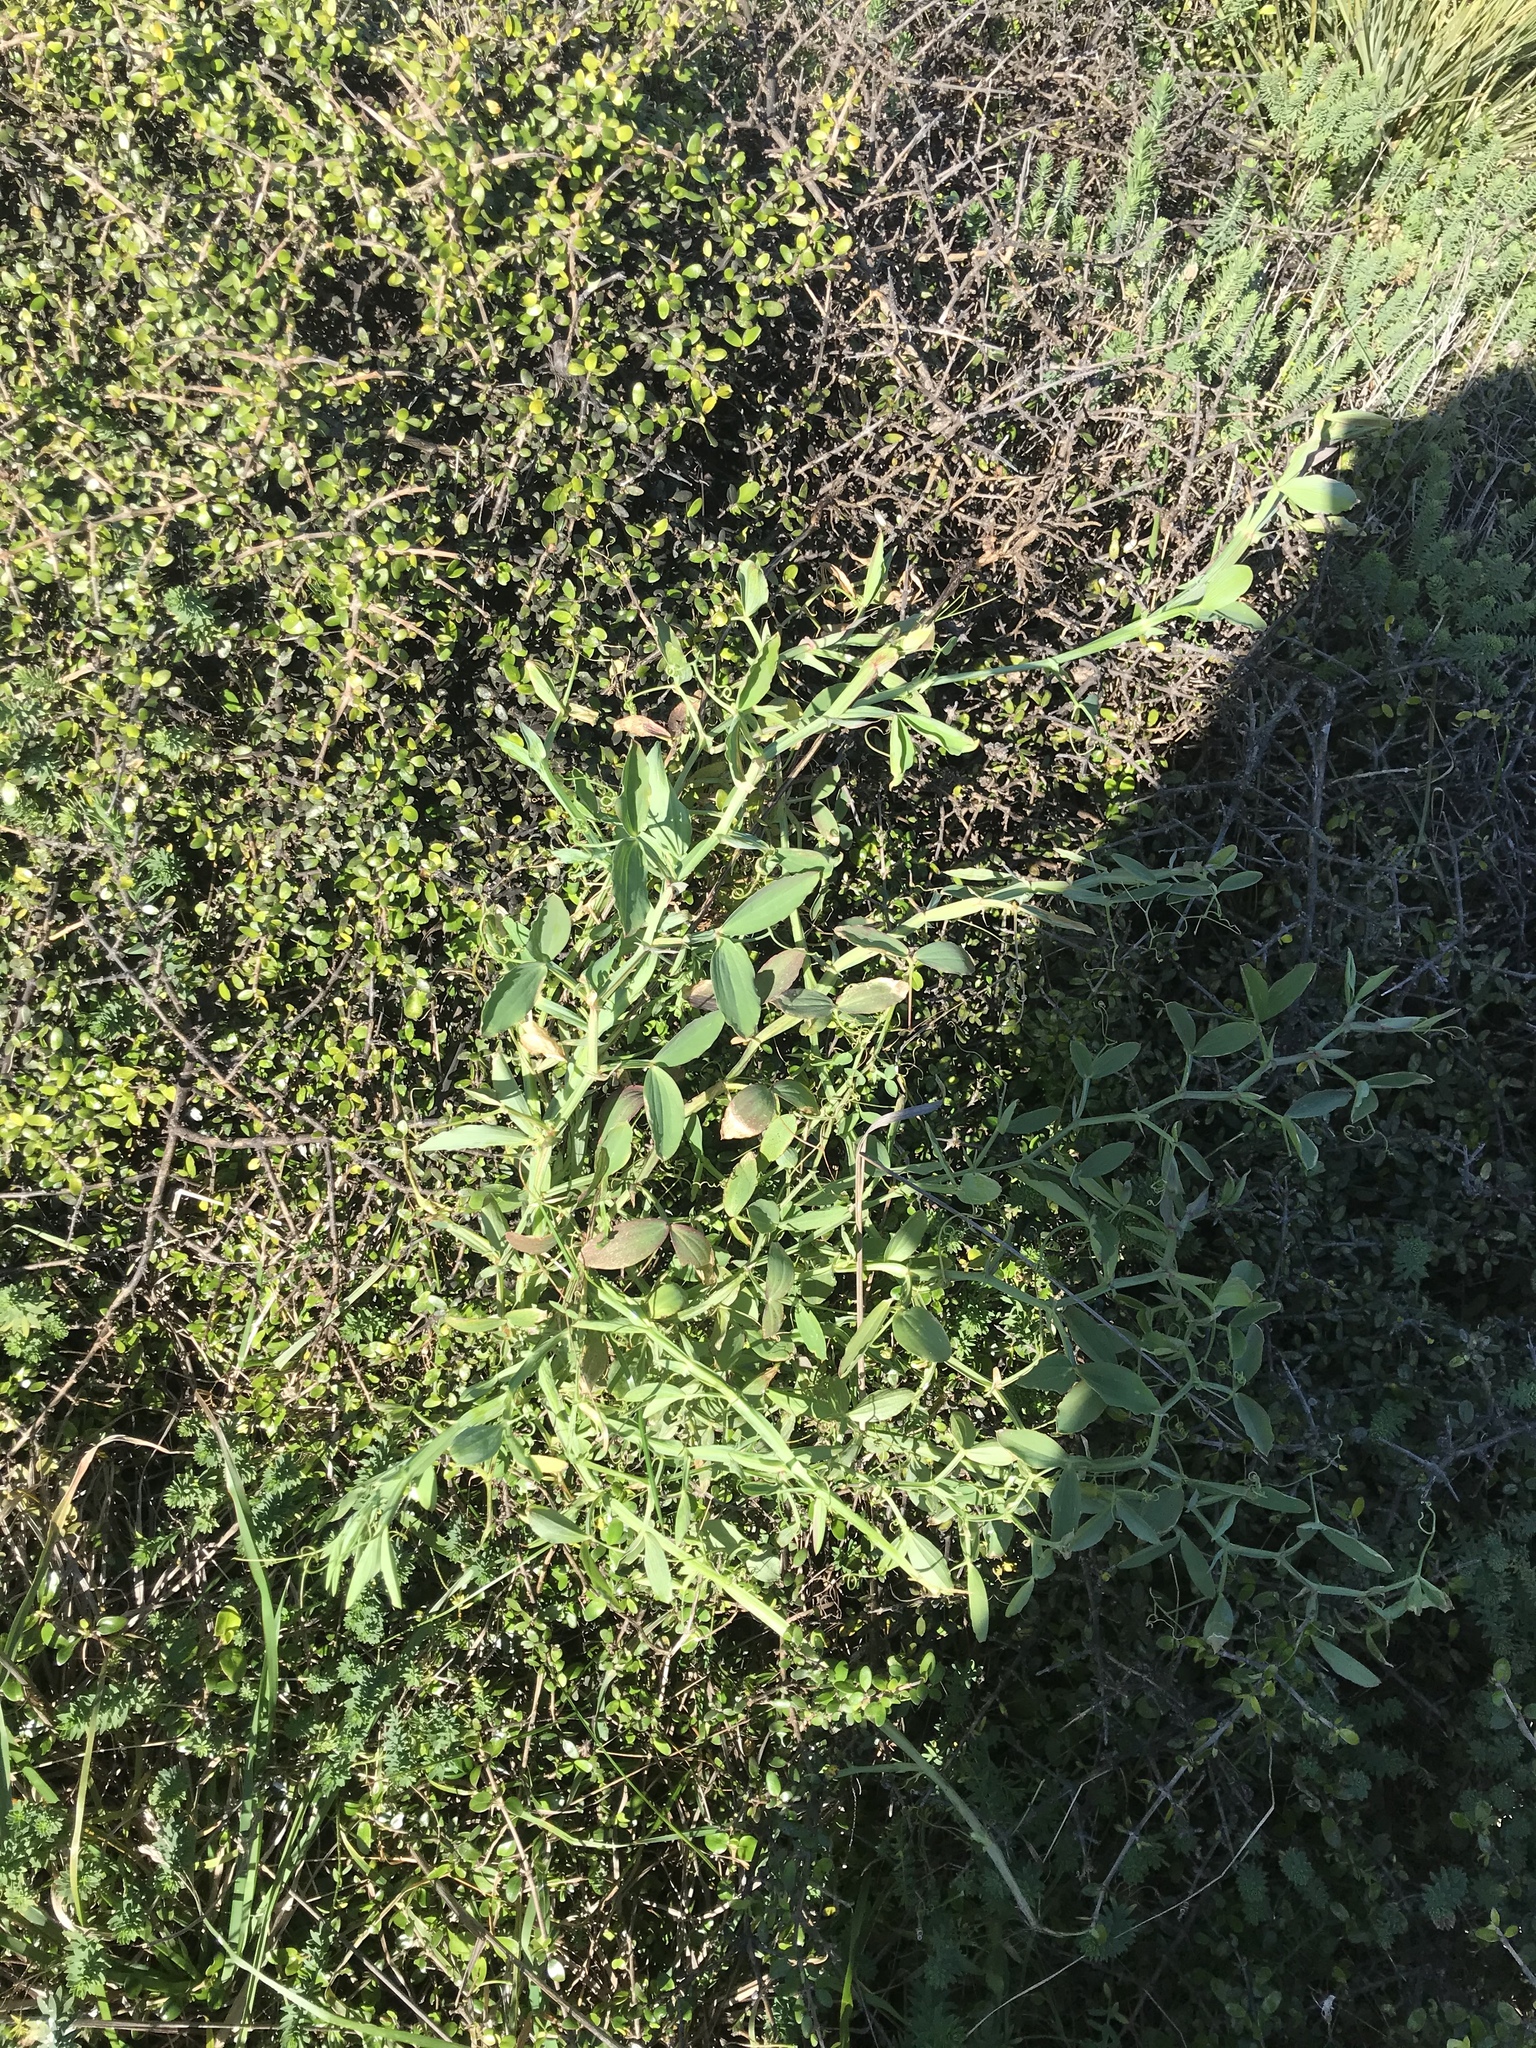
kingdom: Plantae
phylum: Tracheophyta
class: Magnoliopsida
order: Fabales
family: Fabaceae
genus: Lathyrus
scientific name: Lathyrus latifolius
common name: Perennial pea
